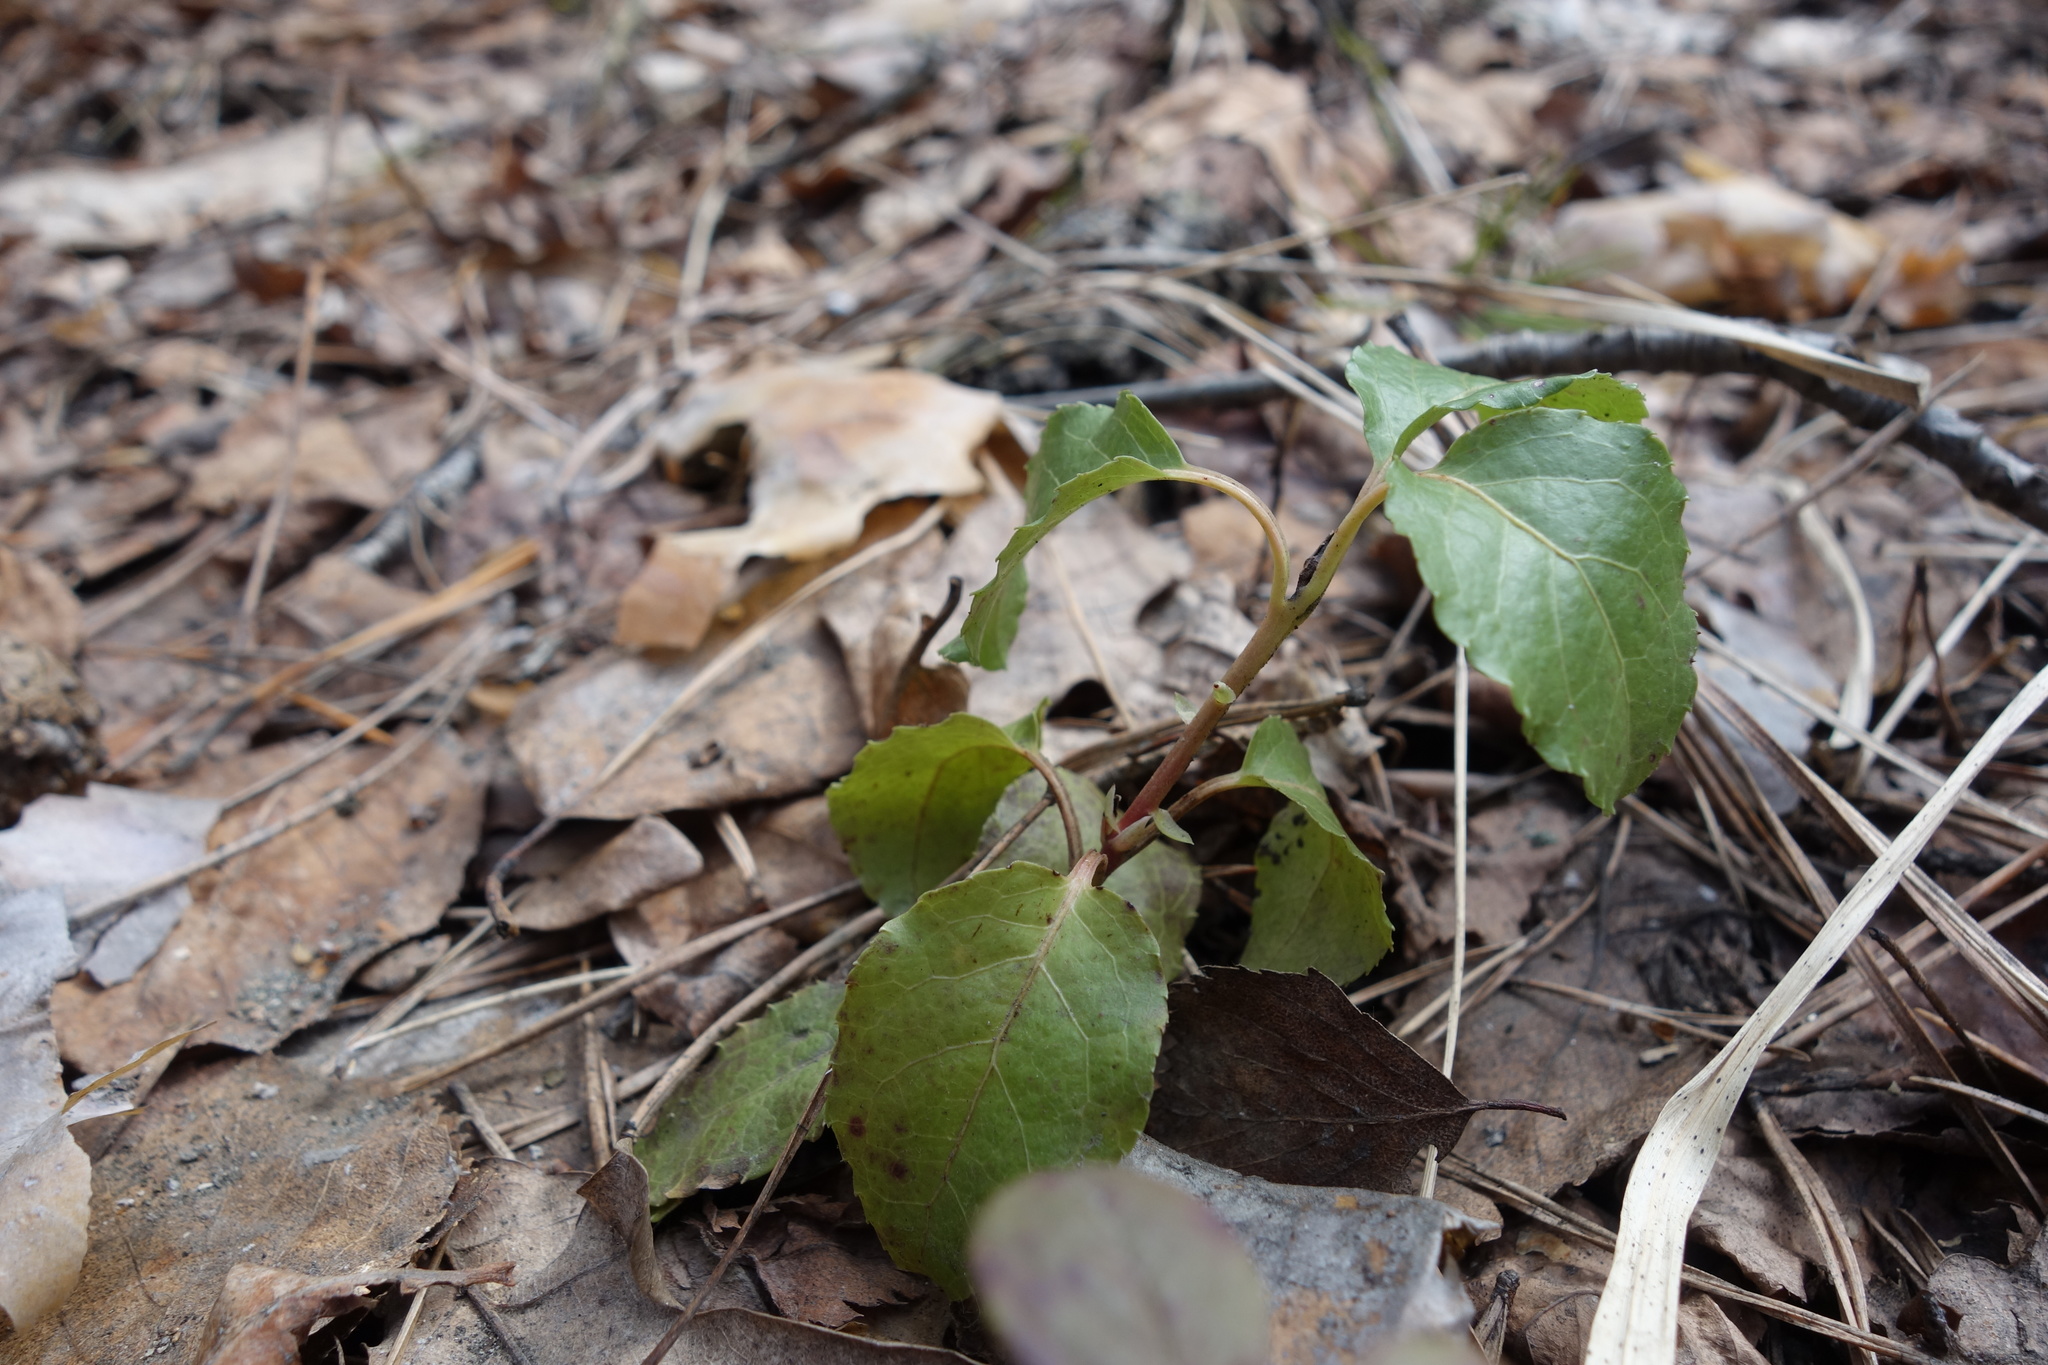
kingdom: Plantae
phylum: Tracheophyta
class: Magnoliopsida
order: Ericales
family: Ericaceae
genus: Orthilia
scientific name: Orthilia secunda
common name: One-sided orthilia
